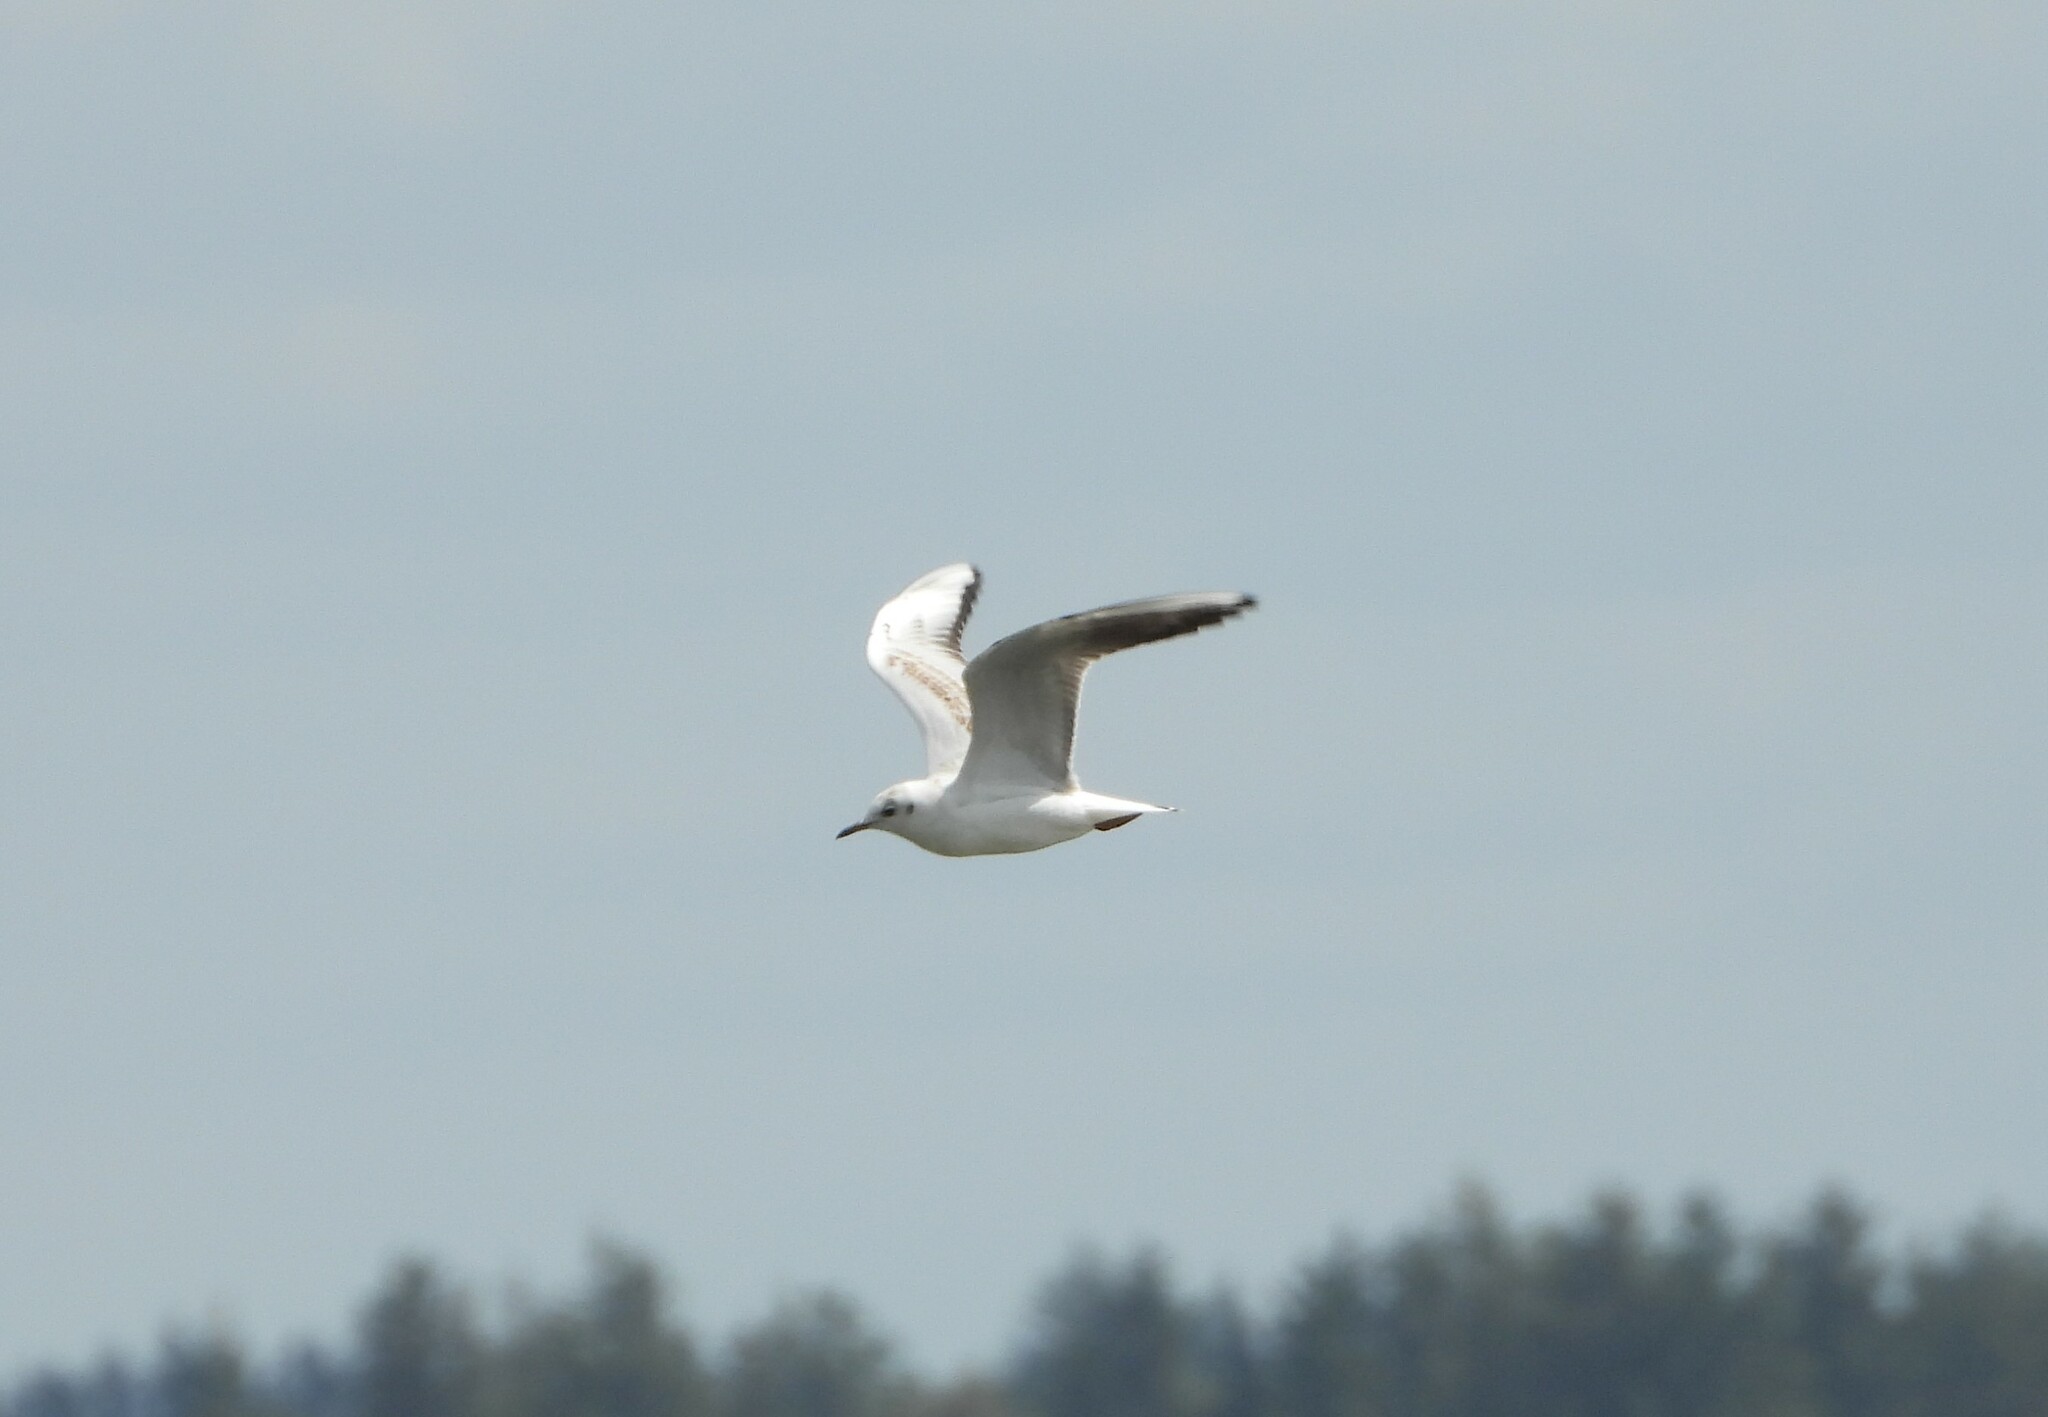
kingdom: Animalia
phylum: Chordata
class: Aves
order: Charadriiformes
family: Laridae
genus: Chroicocephalus
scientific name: Chroicocephalus ridibundus
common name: Black-headed gull
